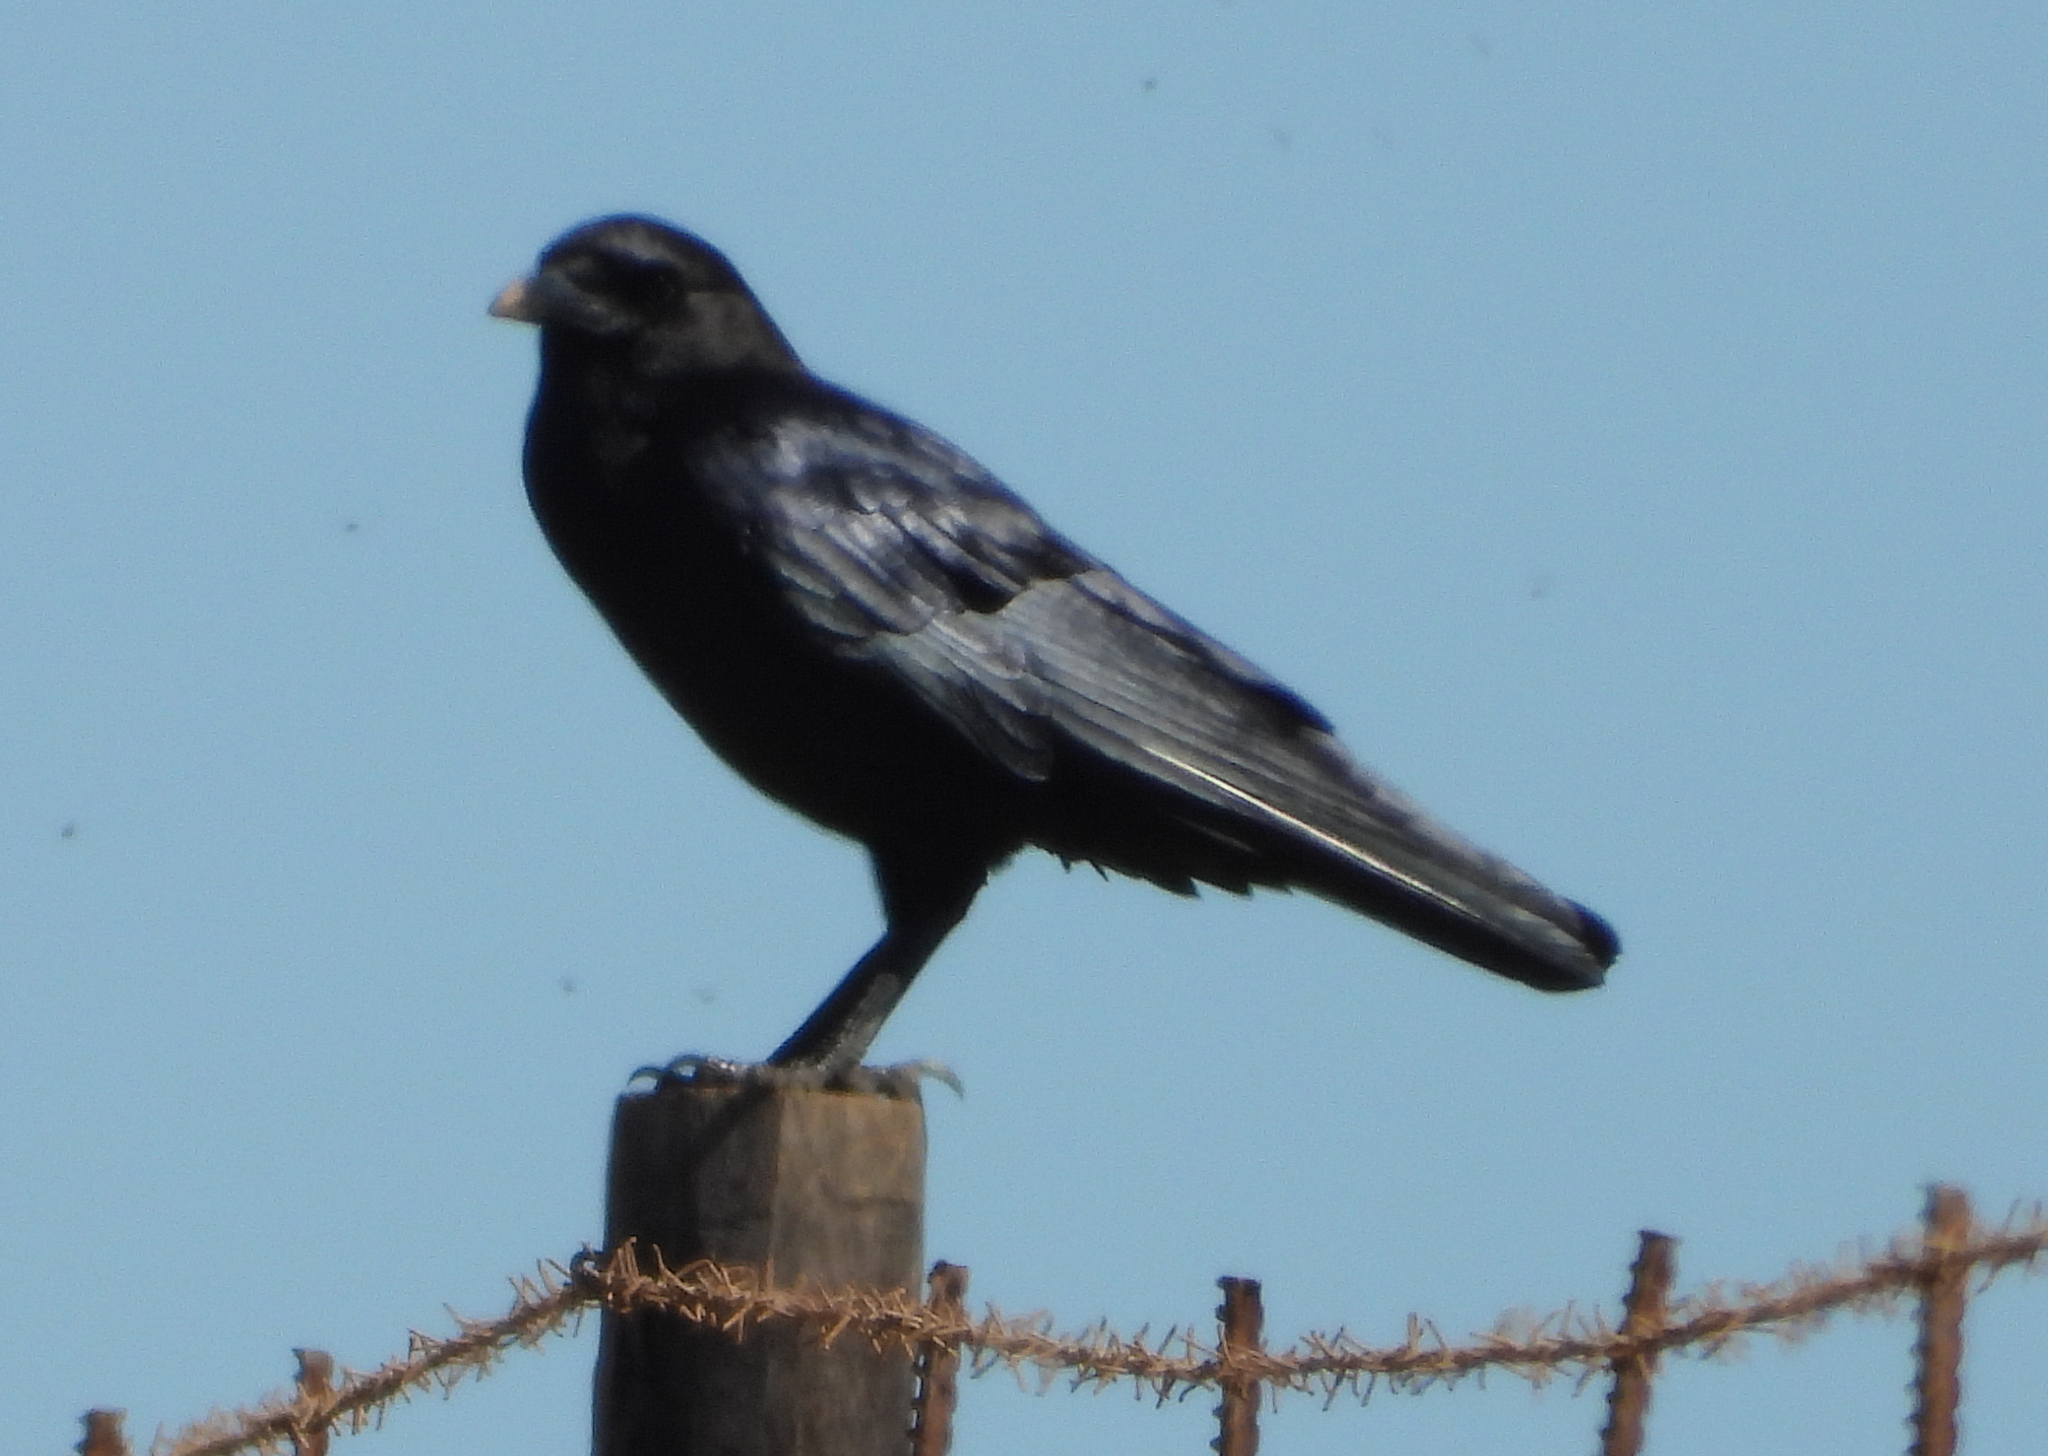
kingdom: Animalia
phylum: Chordata
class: Aves
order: Passeriformes
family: Corvidae
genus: Corvus
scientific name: Corvus capensis
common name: Cape crow
